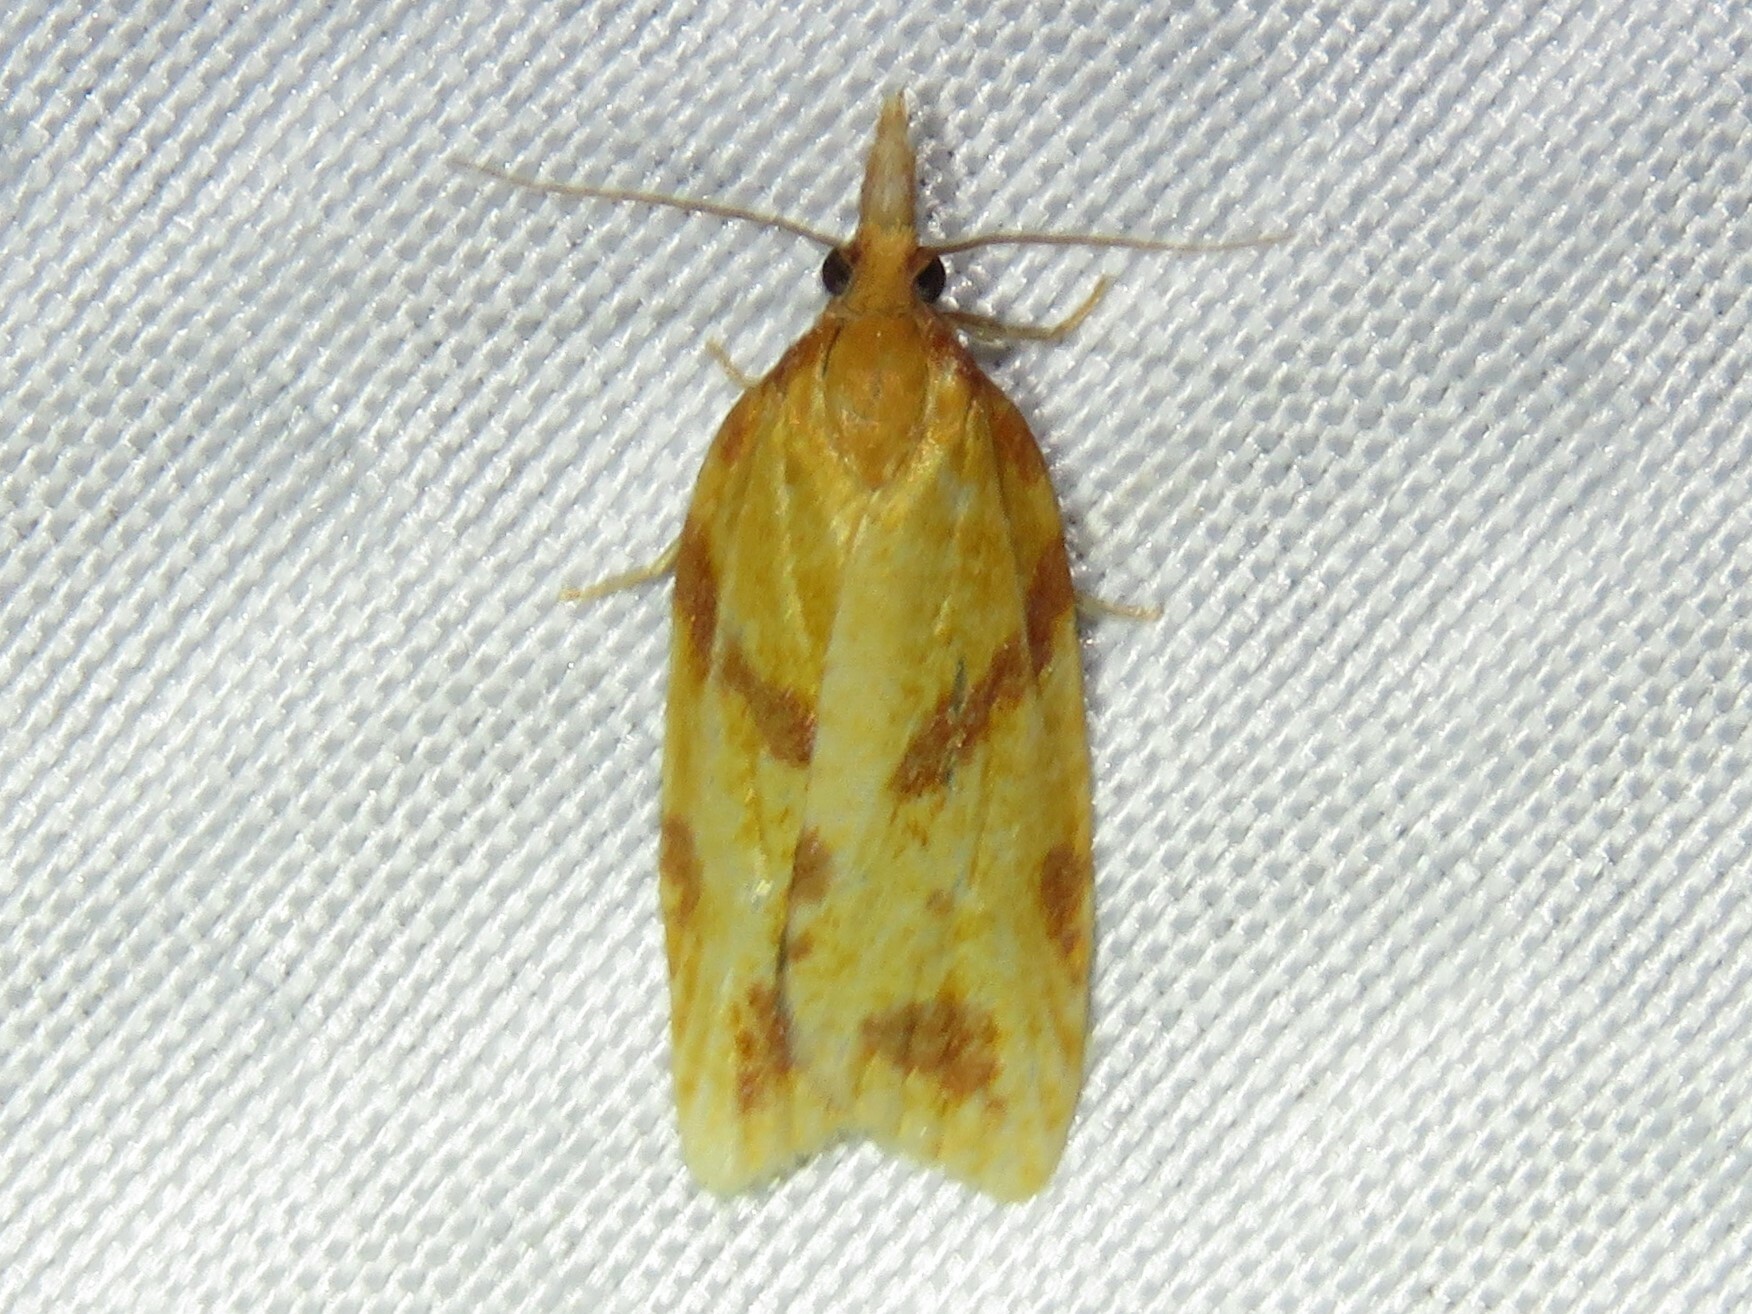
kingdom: Animalia
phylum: Arthropoda
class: Insecta
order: Lepidoptera
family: Tortricidae
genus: Sparganothis
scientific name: Sparganothis unifasciana
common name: One-lined sparganothis moth
